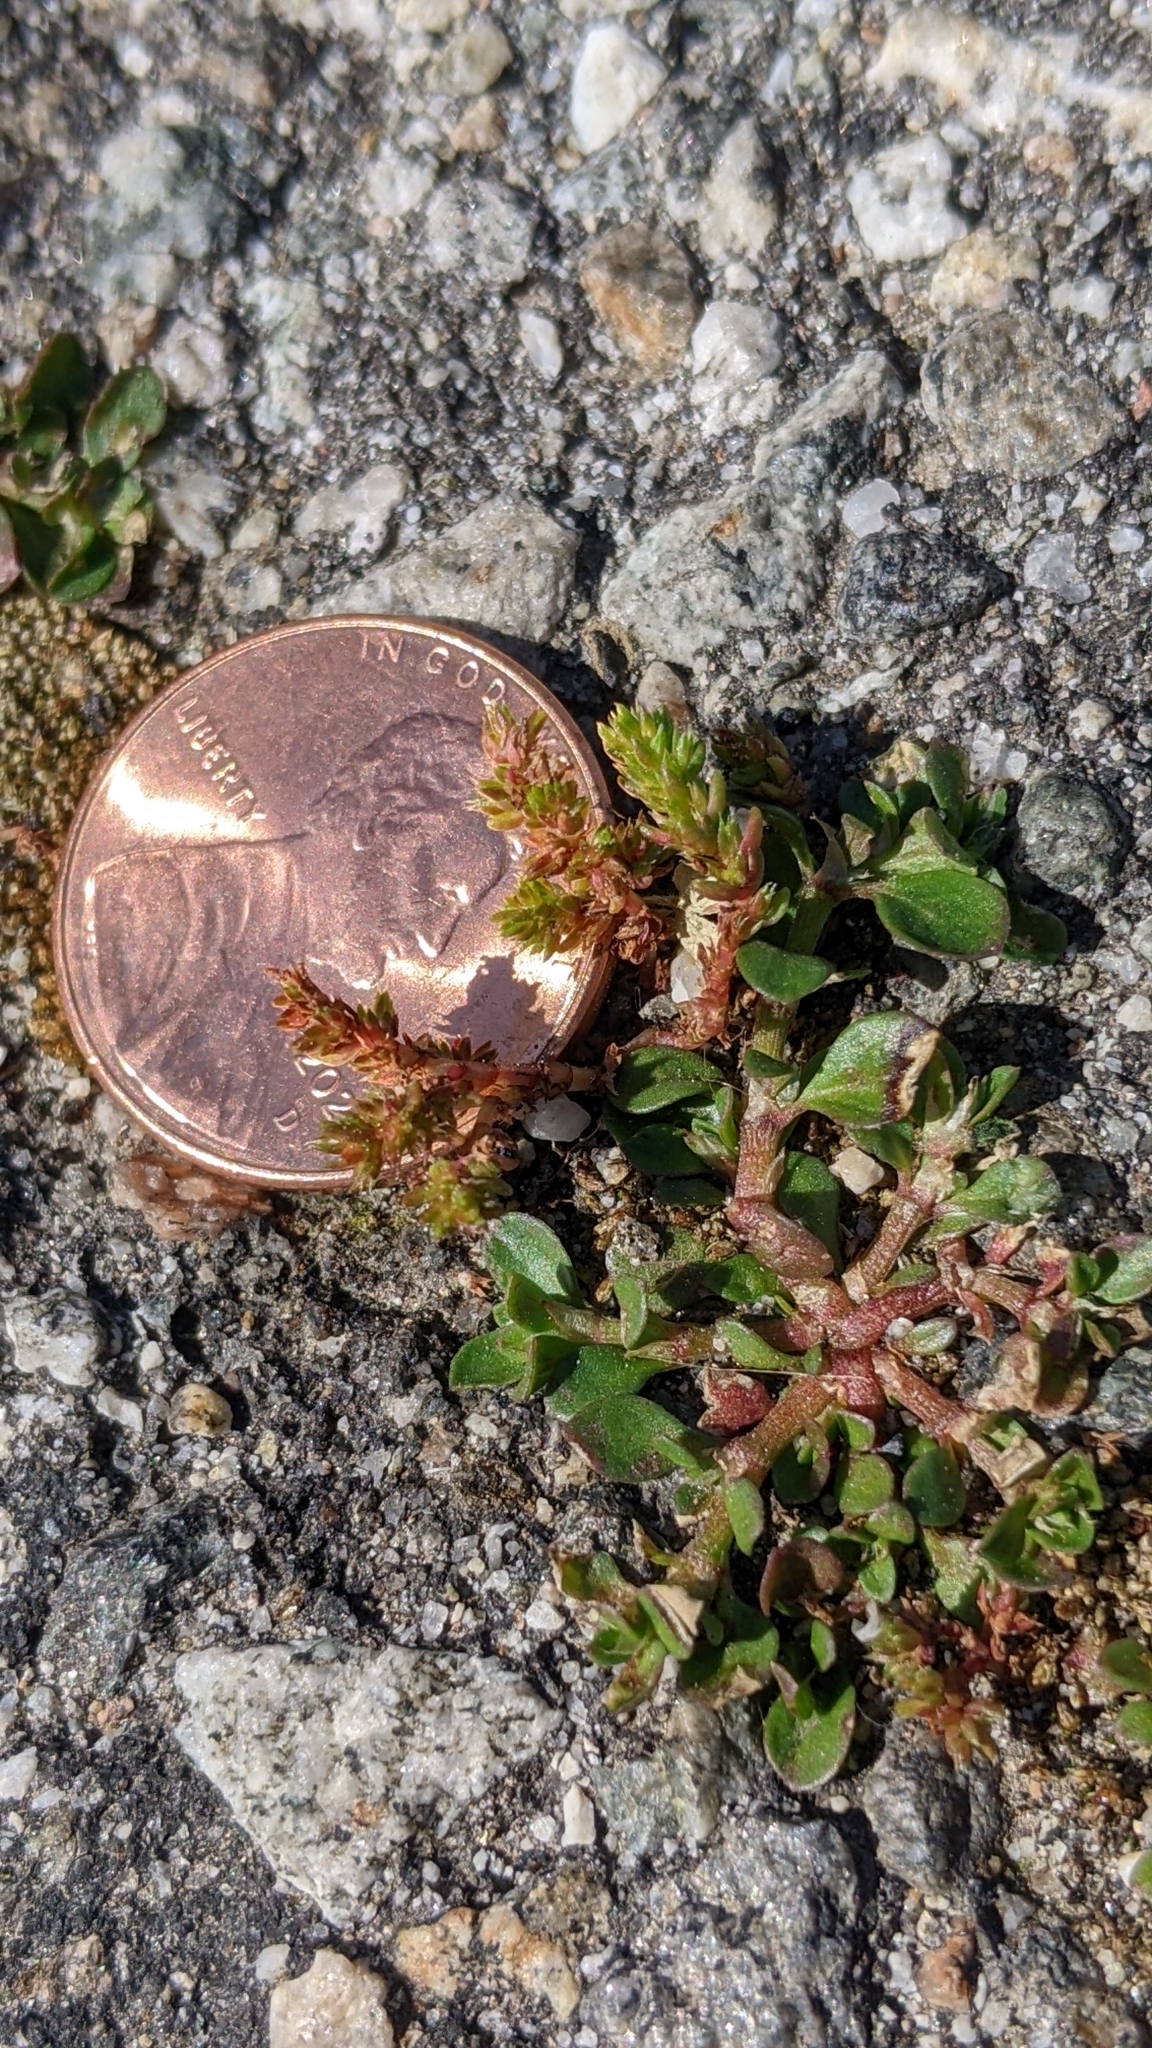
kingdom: Plantae
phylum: Tracheophyta
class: Magnoliopsida
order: Saxifragales
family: Crassulaceae
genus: Crassula
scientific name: Crassula tillaea
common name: Mossy stonecrop
